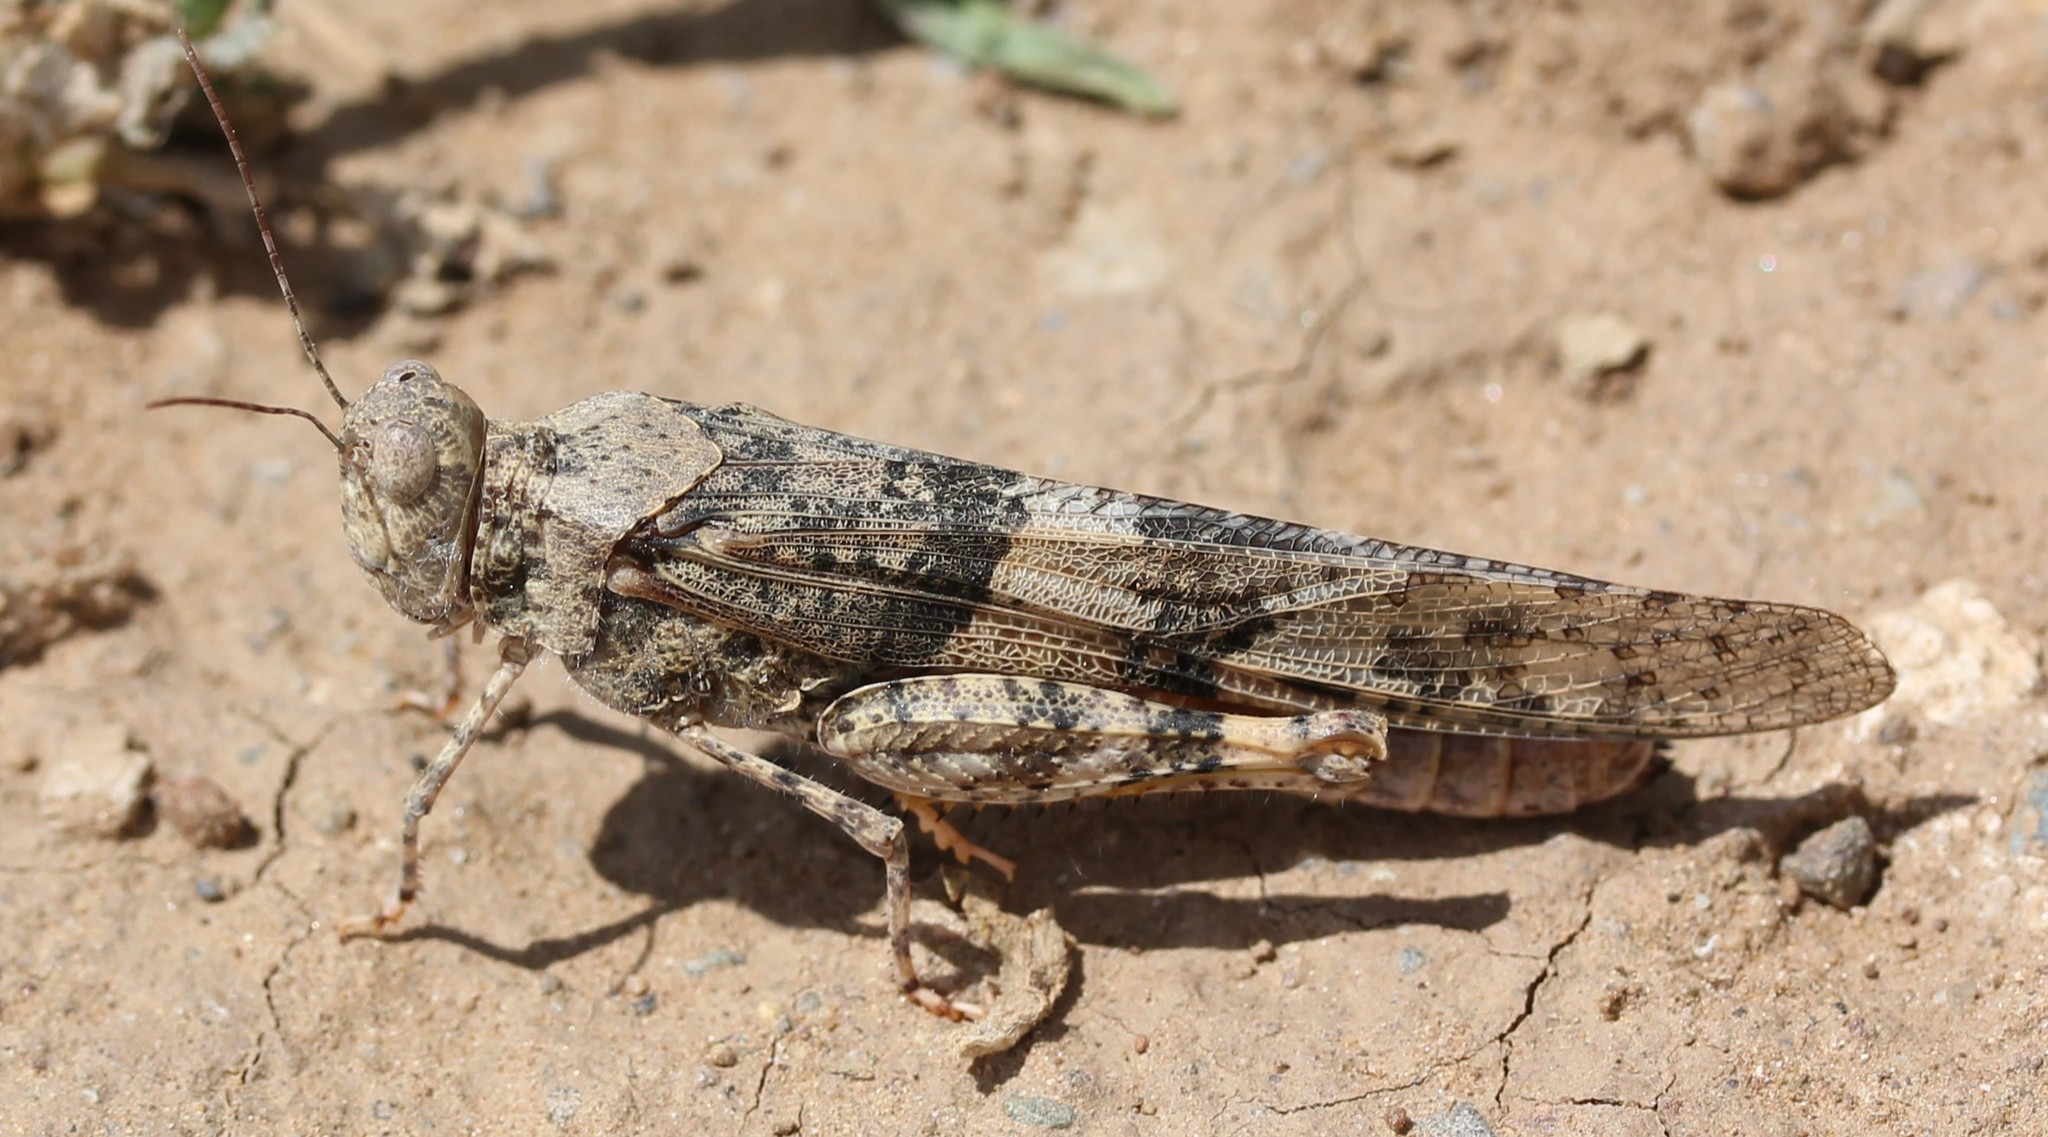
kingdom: Animalia
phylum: Arthropoda
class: Insecta
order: Orthoptera
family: Acrididae
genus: Trimerotropis
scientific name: Trimerotropis pallidipennis
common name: Pallid-winged grasshopper
